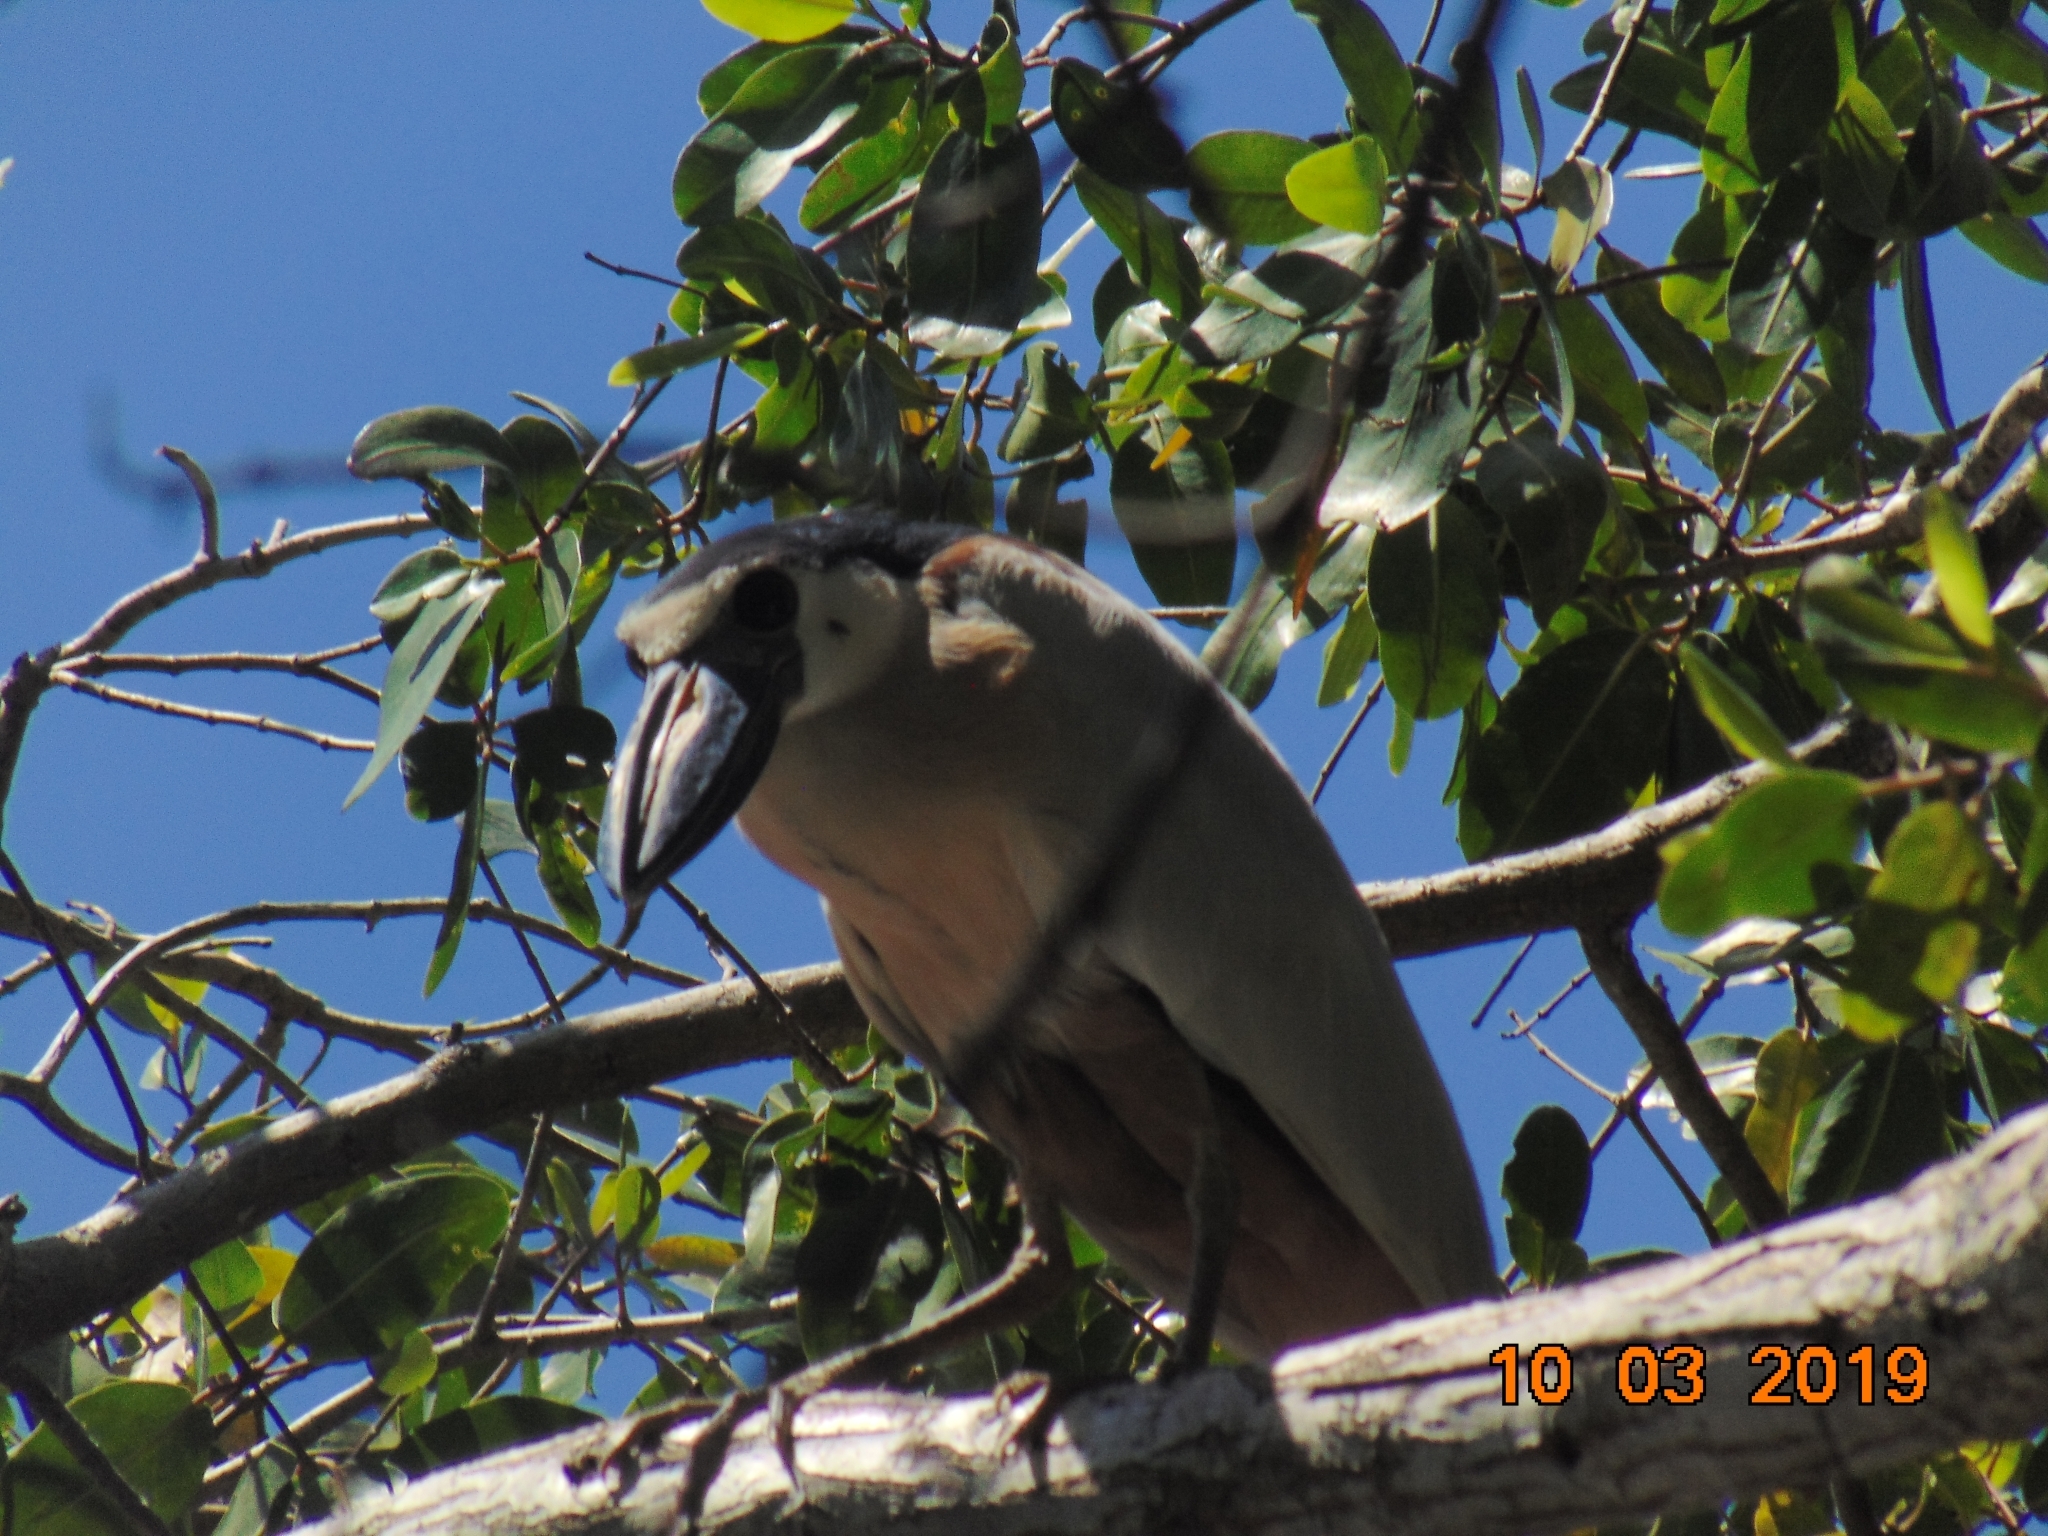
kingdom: Animalia
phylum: Chordata
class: Aves
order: Pelecaniformes
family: Ardeidae
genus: Cochlearius
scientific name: Cochlearius cochlearius
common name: Boat-billed heron
